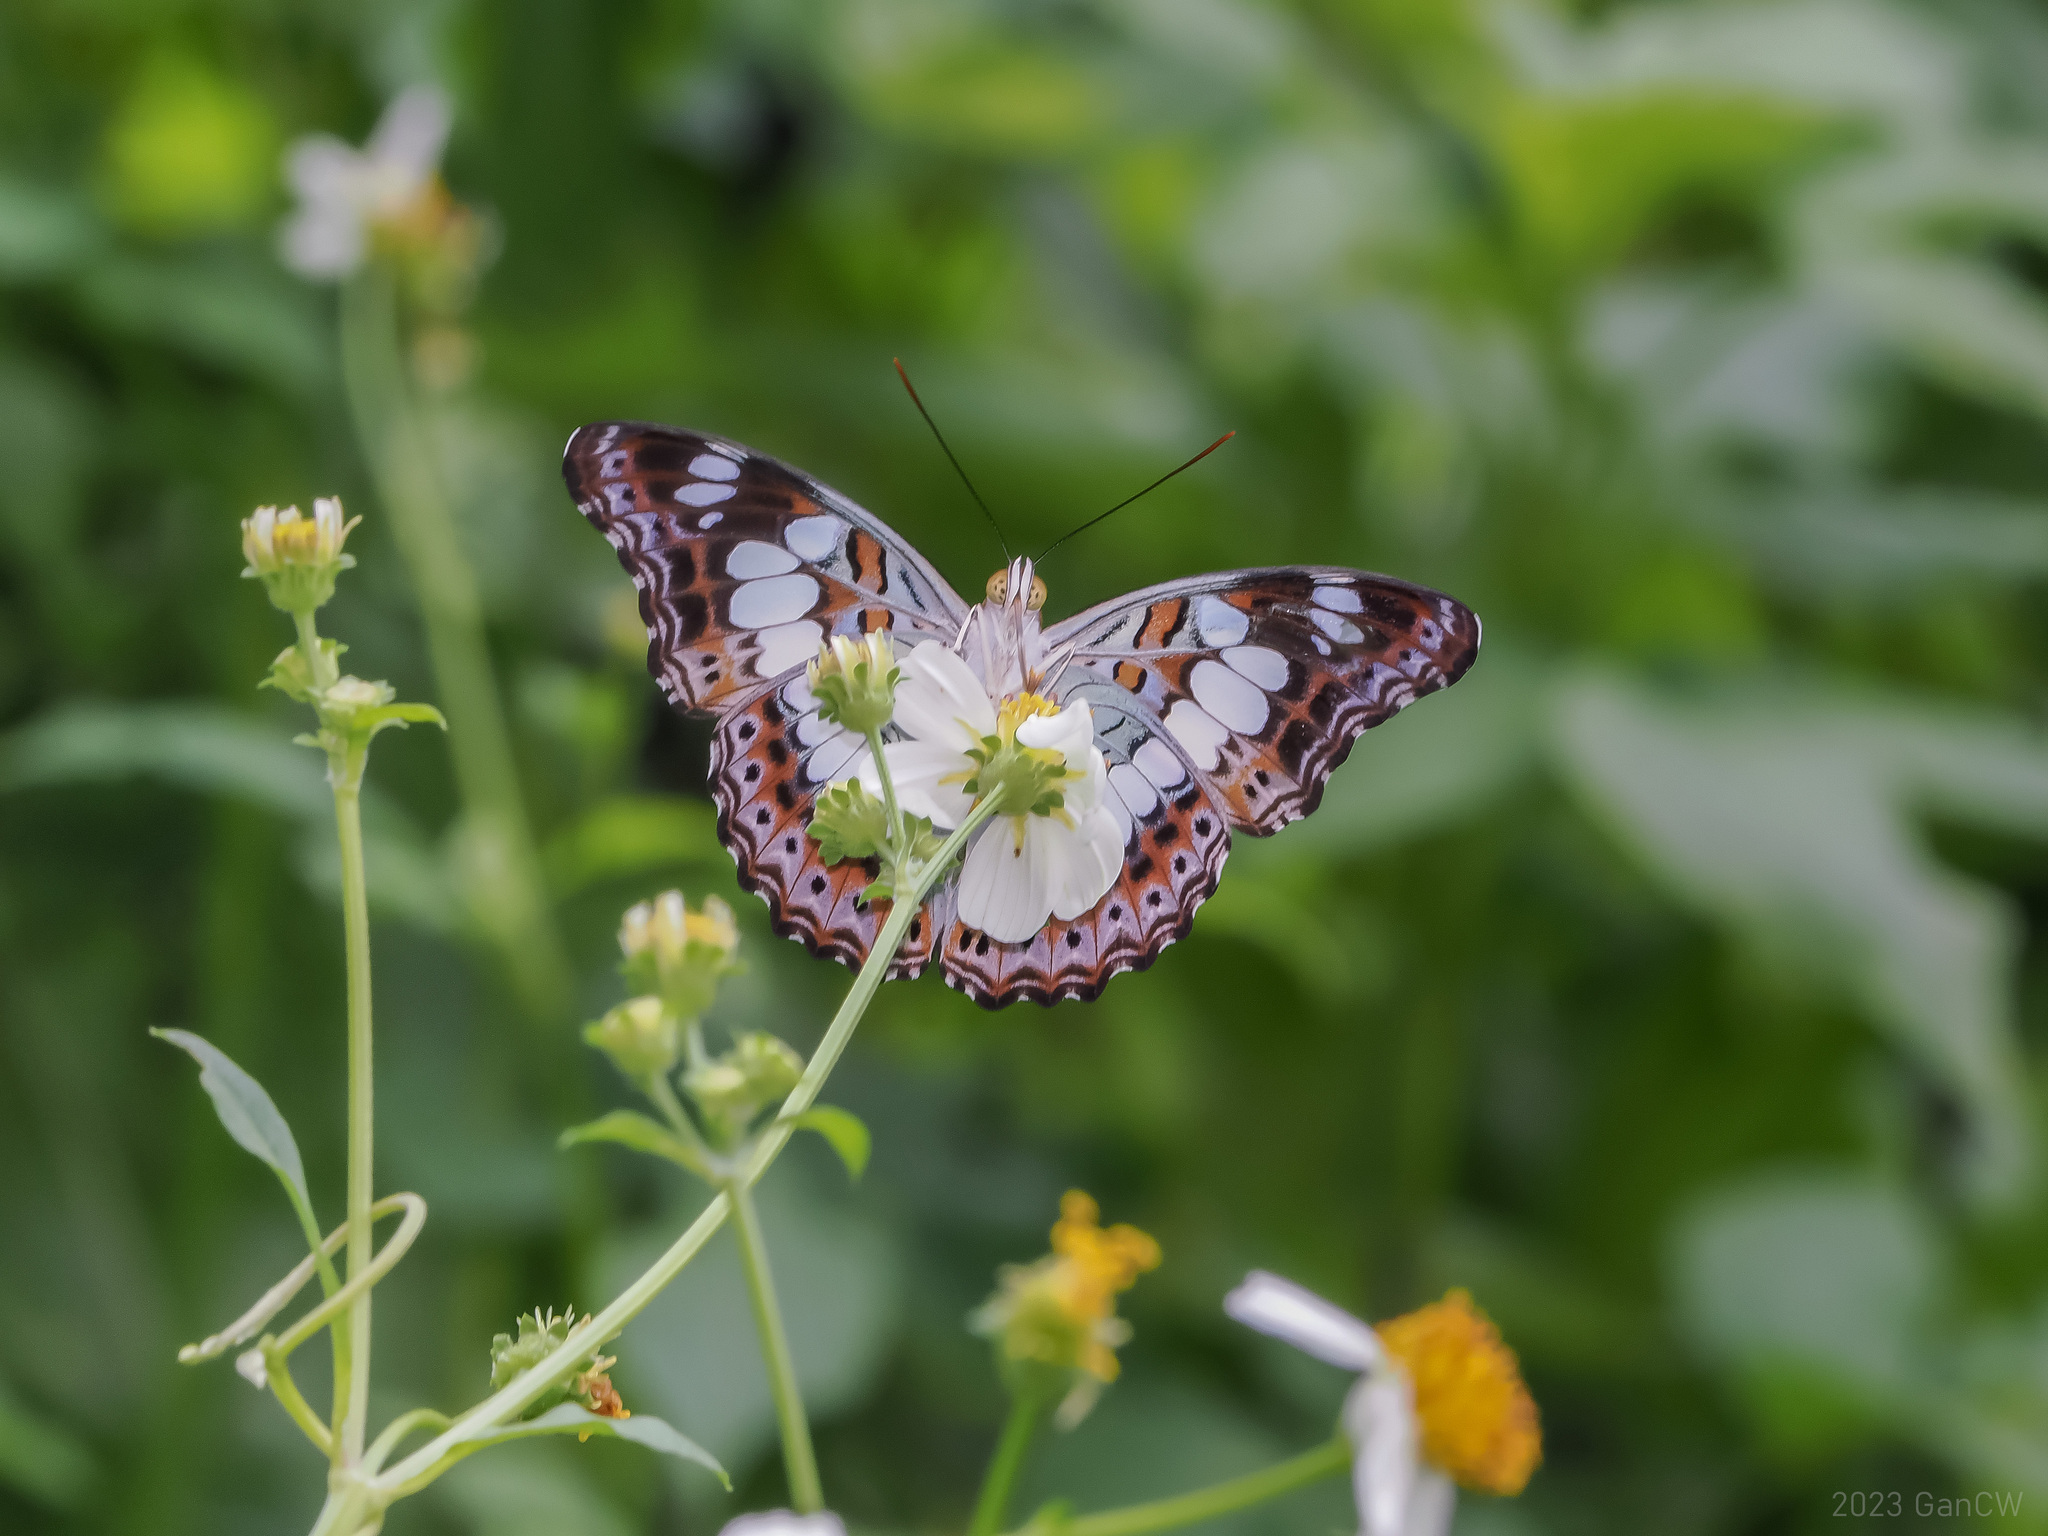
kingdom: Animalia
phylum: Arthropoda
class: Insecta
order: Lepidoptera
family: Nymphalidae
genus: Limenitis
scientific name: Limenitis Moduza procris
